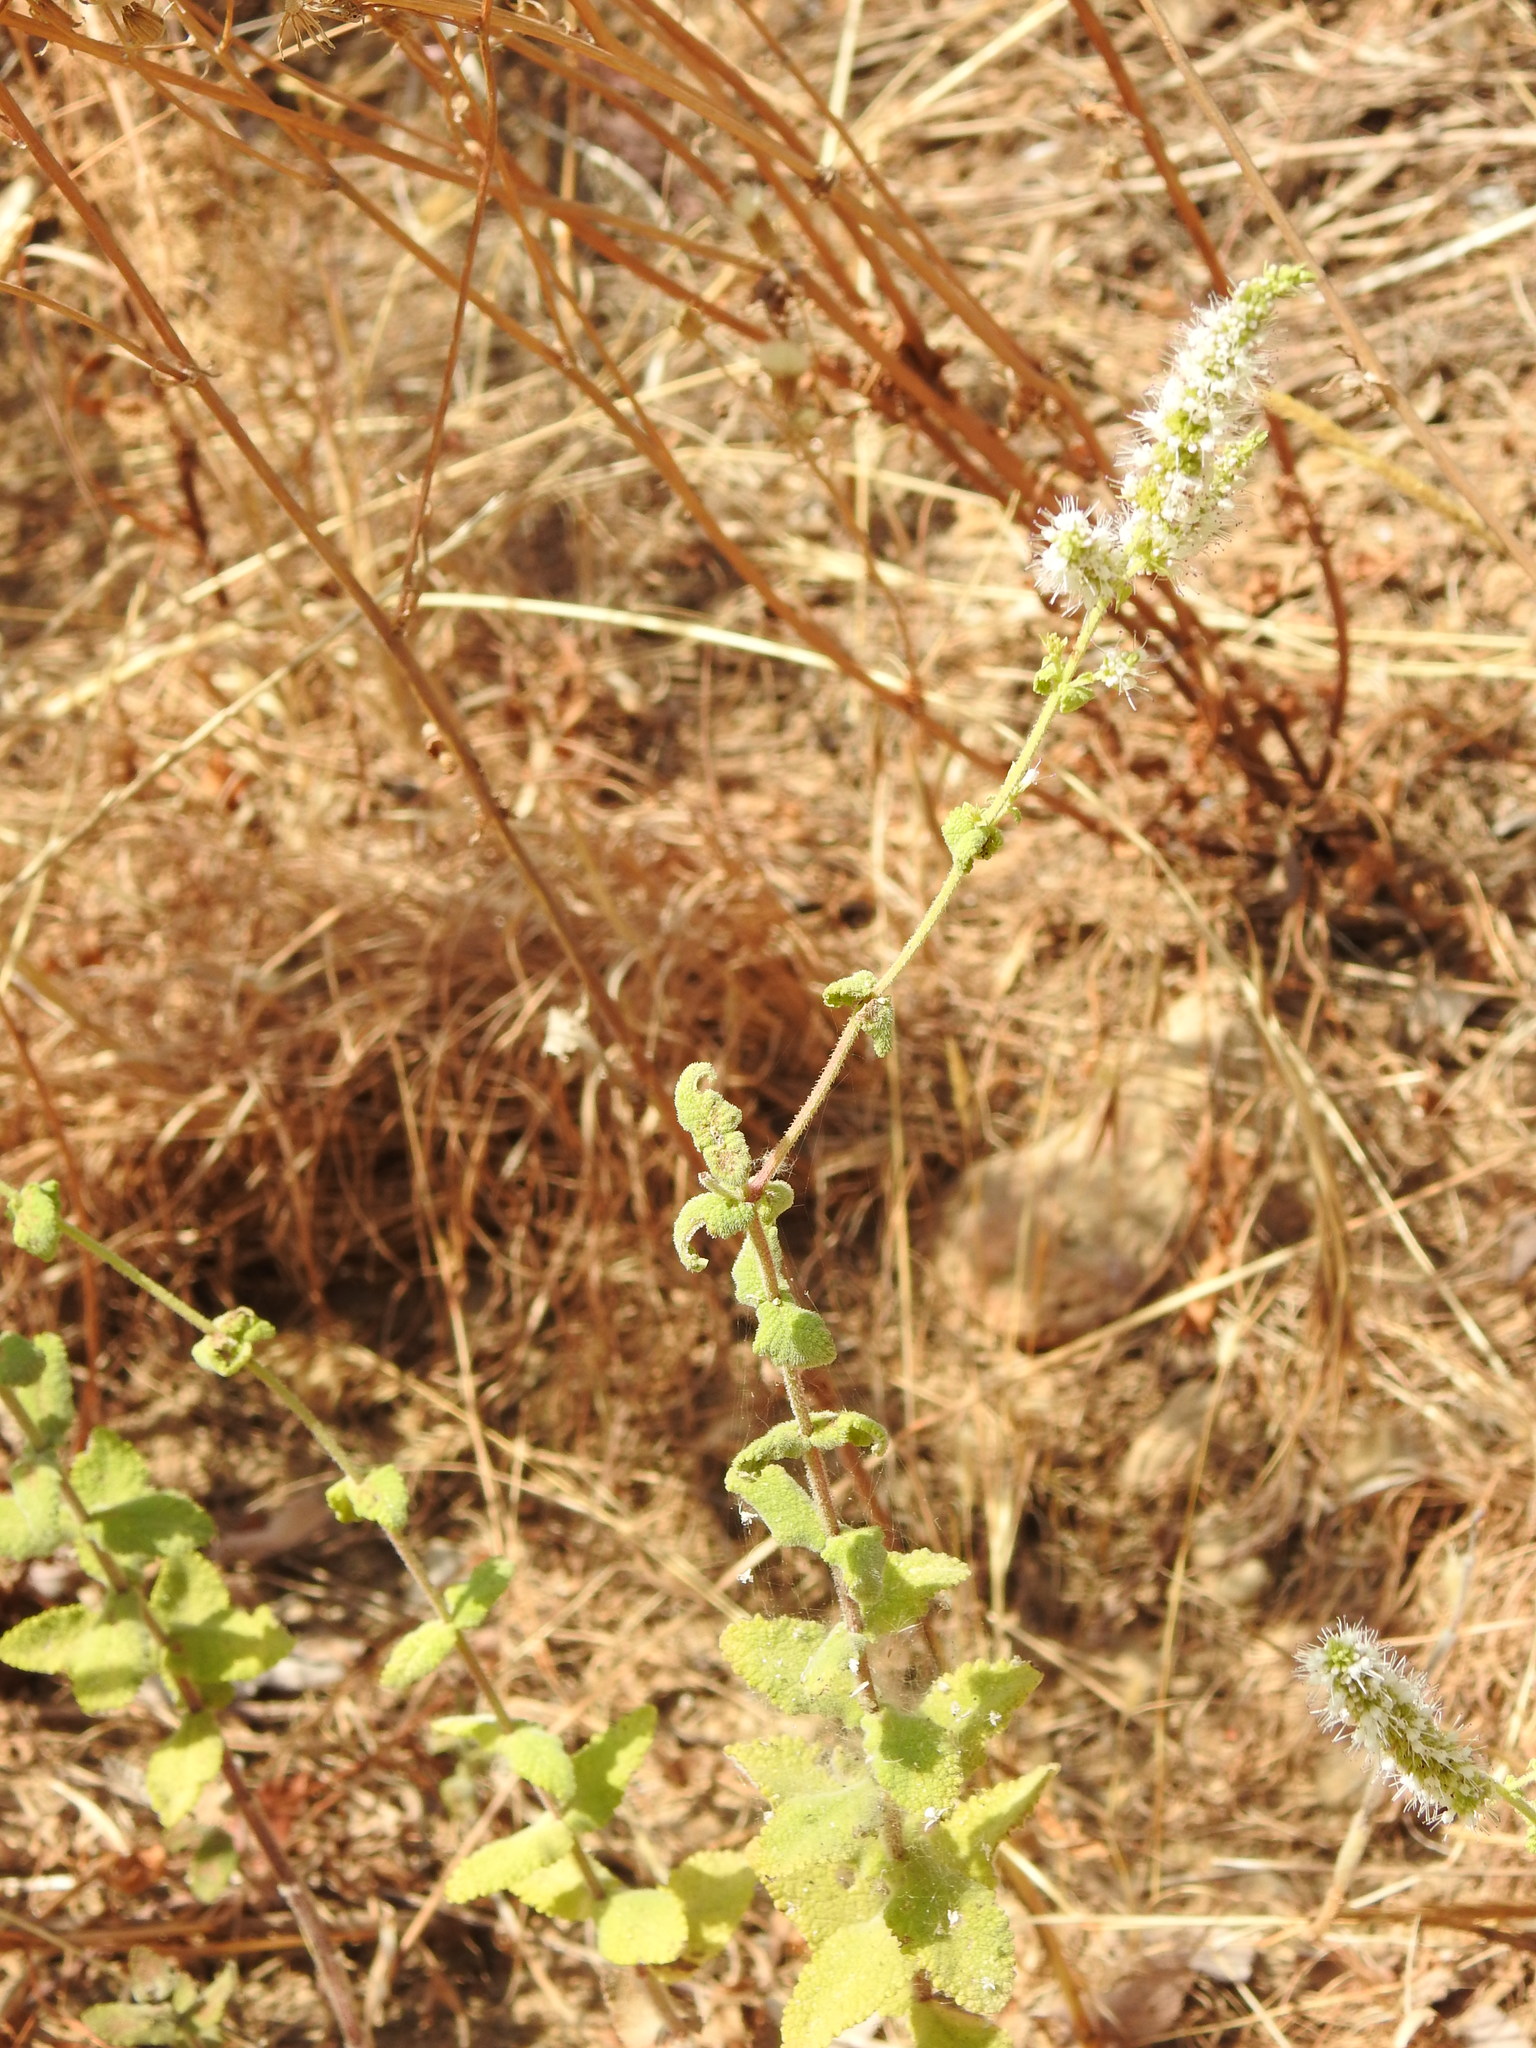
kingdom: Plantae
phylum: Tracheophyta
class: Magnoliopsida
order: Lamiales
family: Lamiaceae
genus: Mentha
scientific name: Mentha suaveolens
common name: Apple mint
